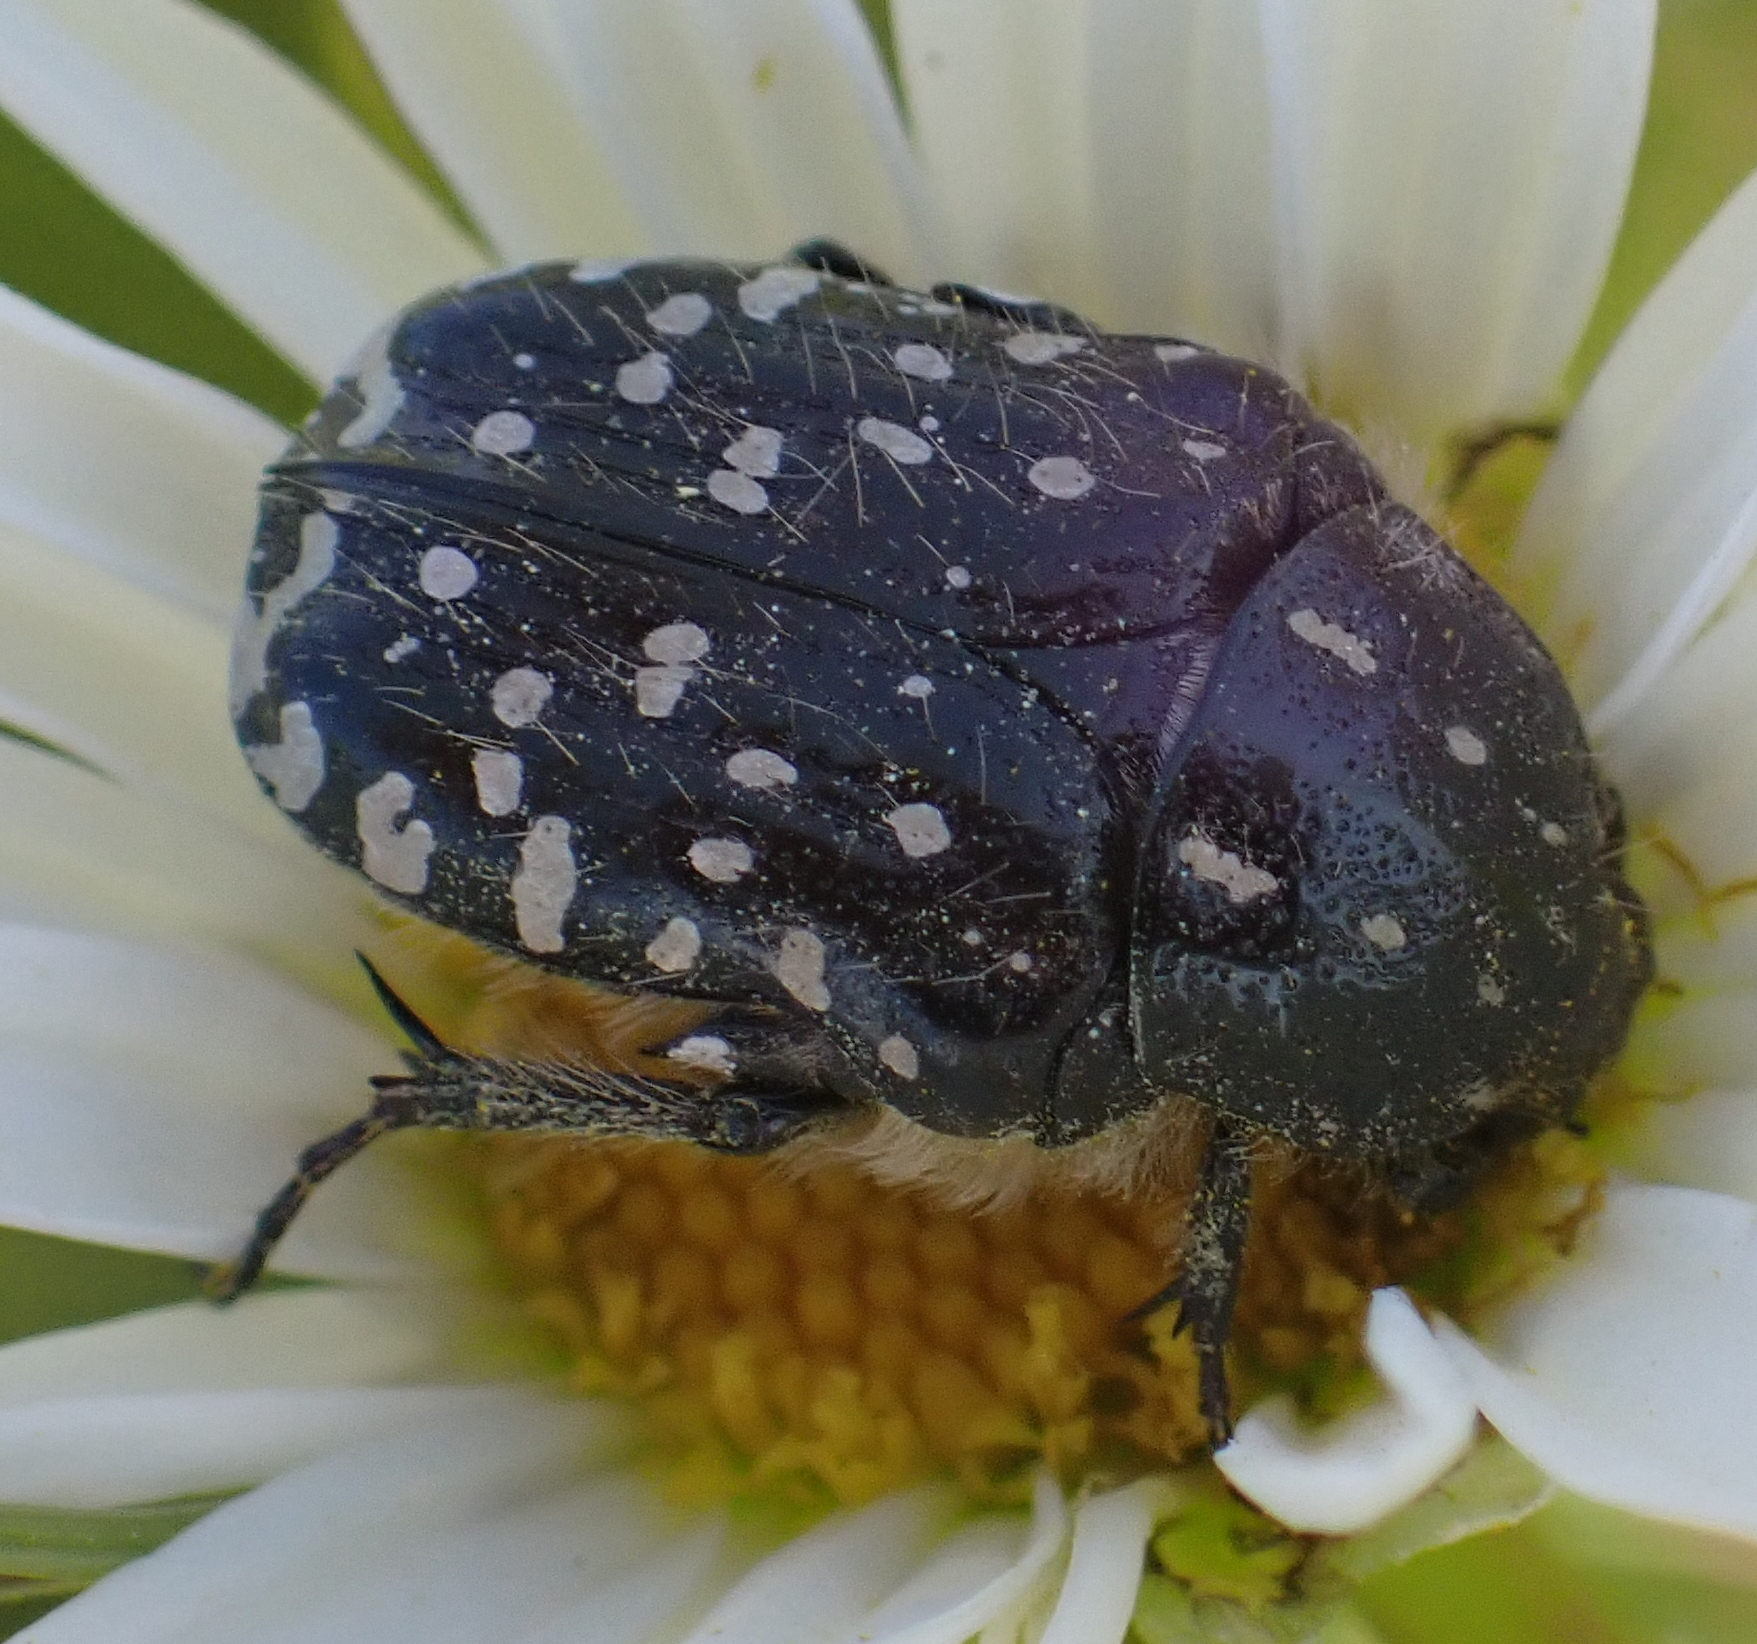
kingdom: Animalia
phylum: Arthropoda
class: Insecta
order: Coleoptera
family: Scarabaeidae
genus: Oxythyrea
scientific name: Oxythyrea funesta
